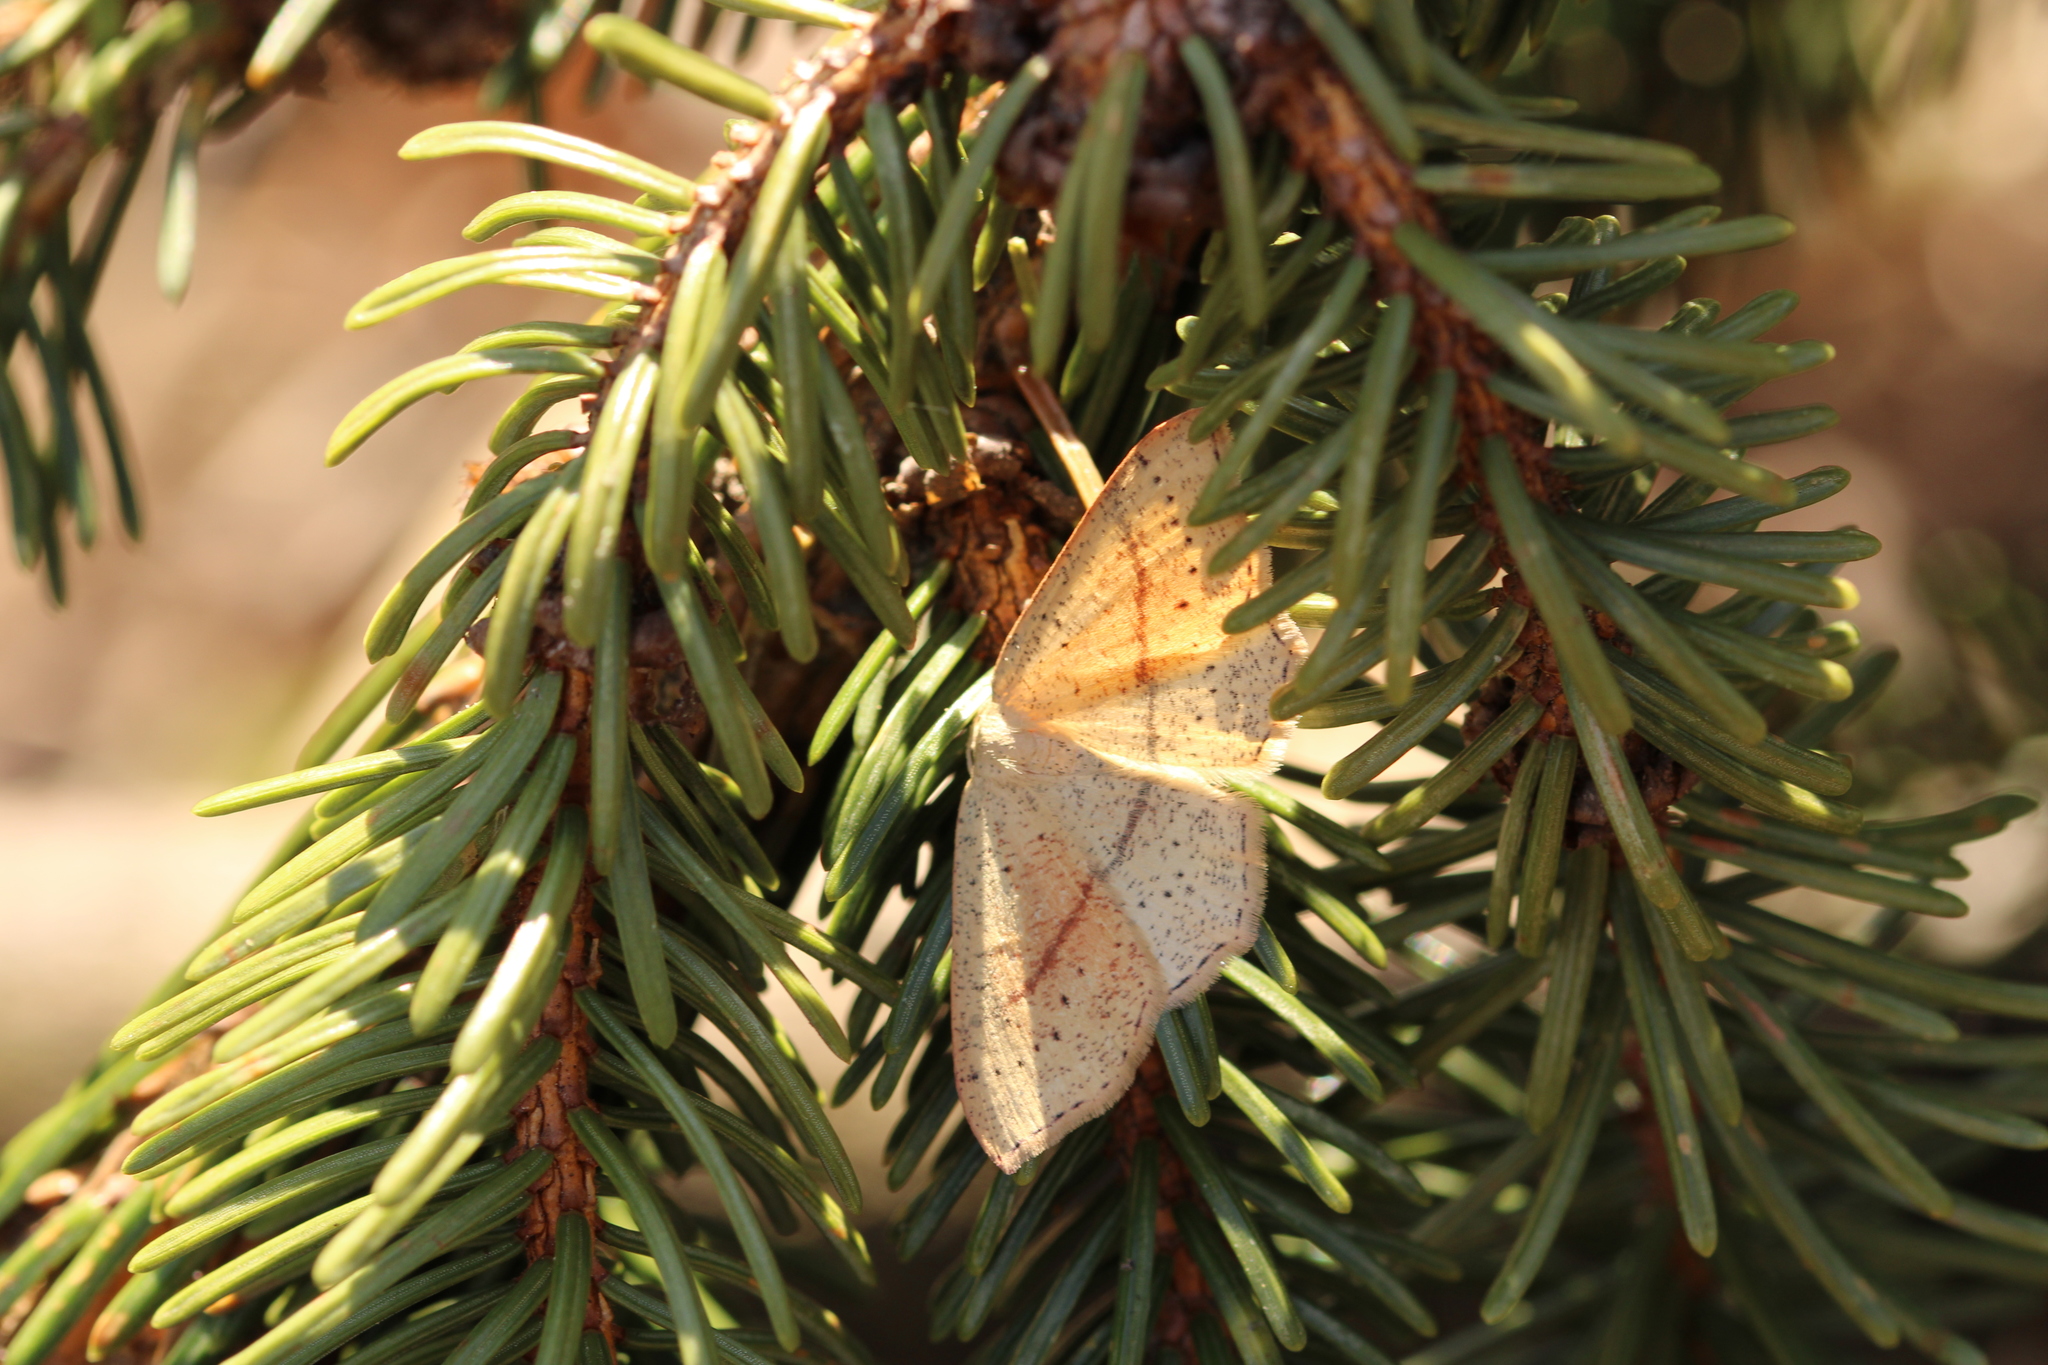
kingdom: Animalia
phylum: Arthropoda
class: Insecta
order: Lepidoptera
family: Geometridae
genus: Cyclophora
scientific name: Cyclophora punctaria
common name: Maiden's blush
